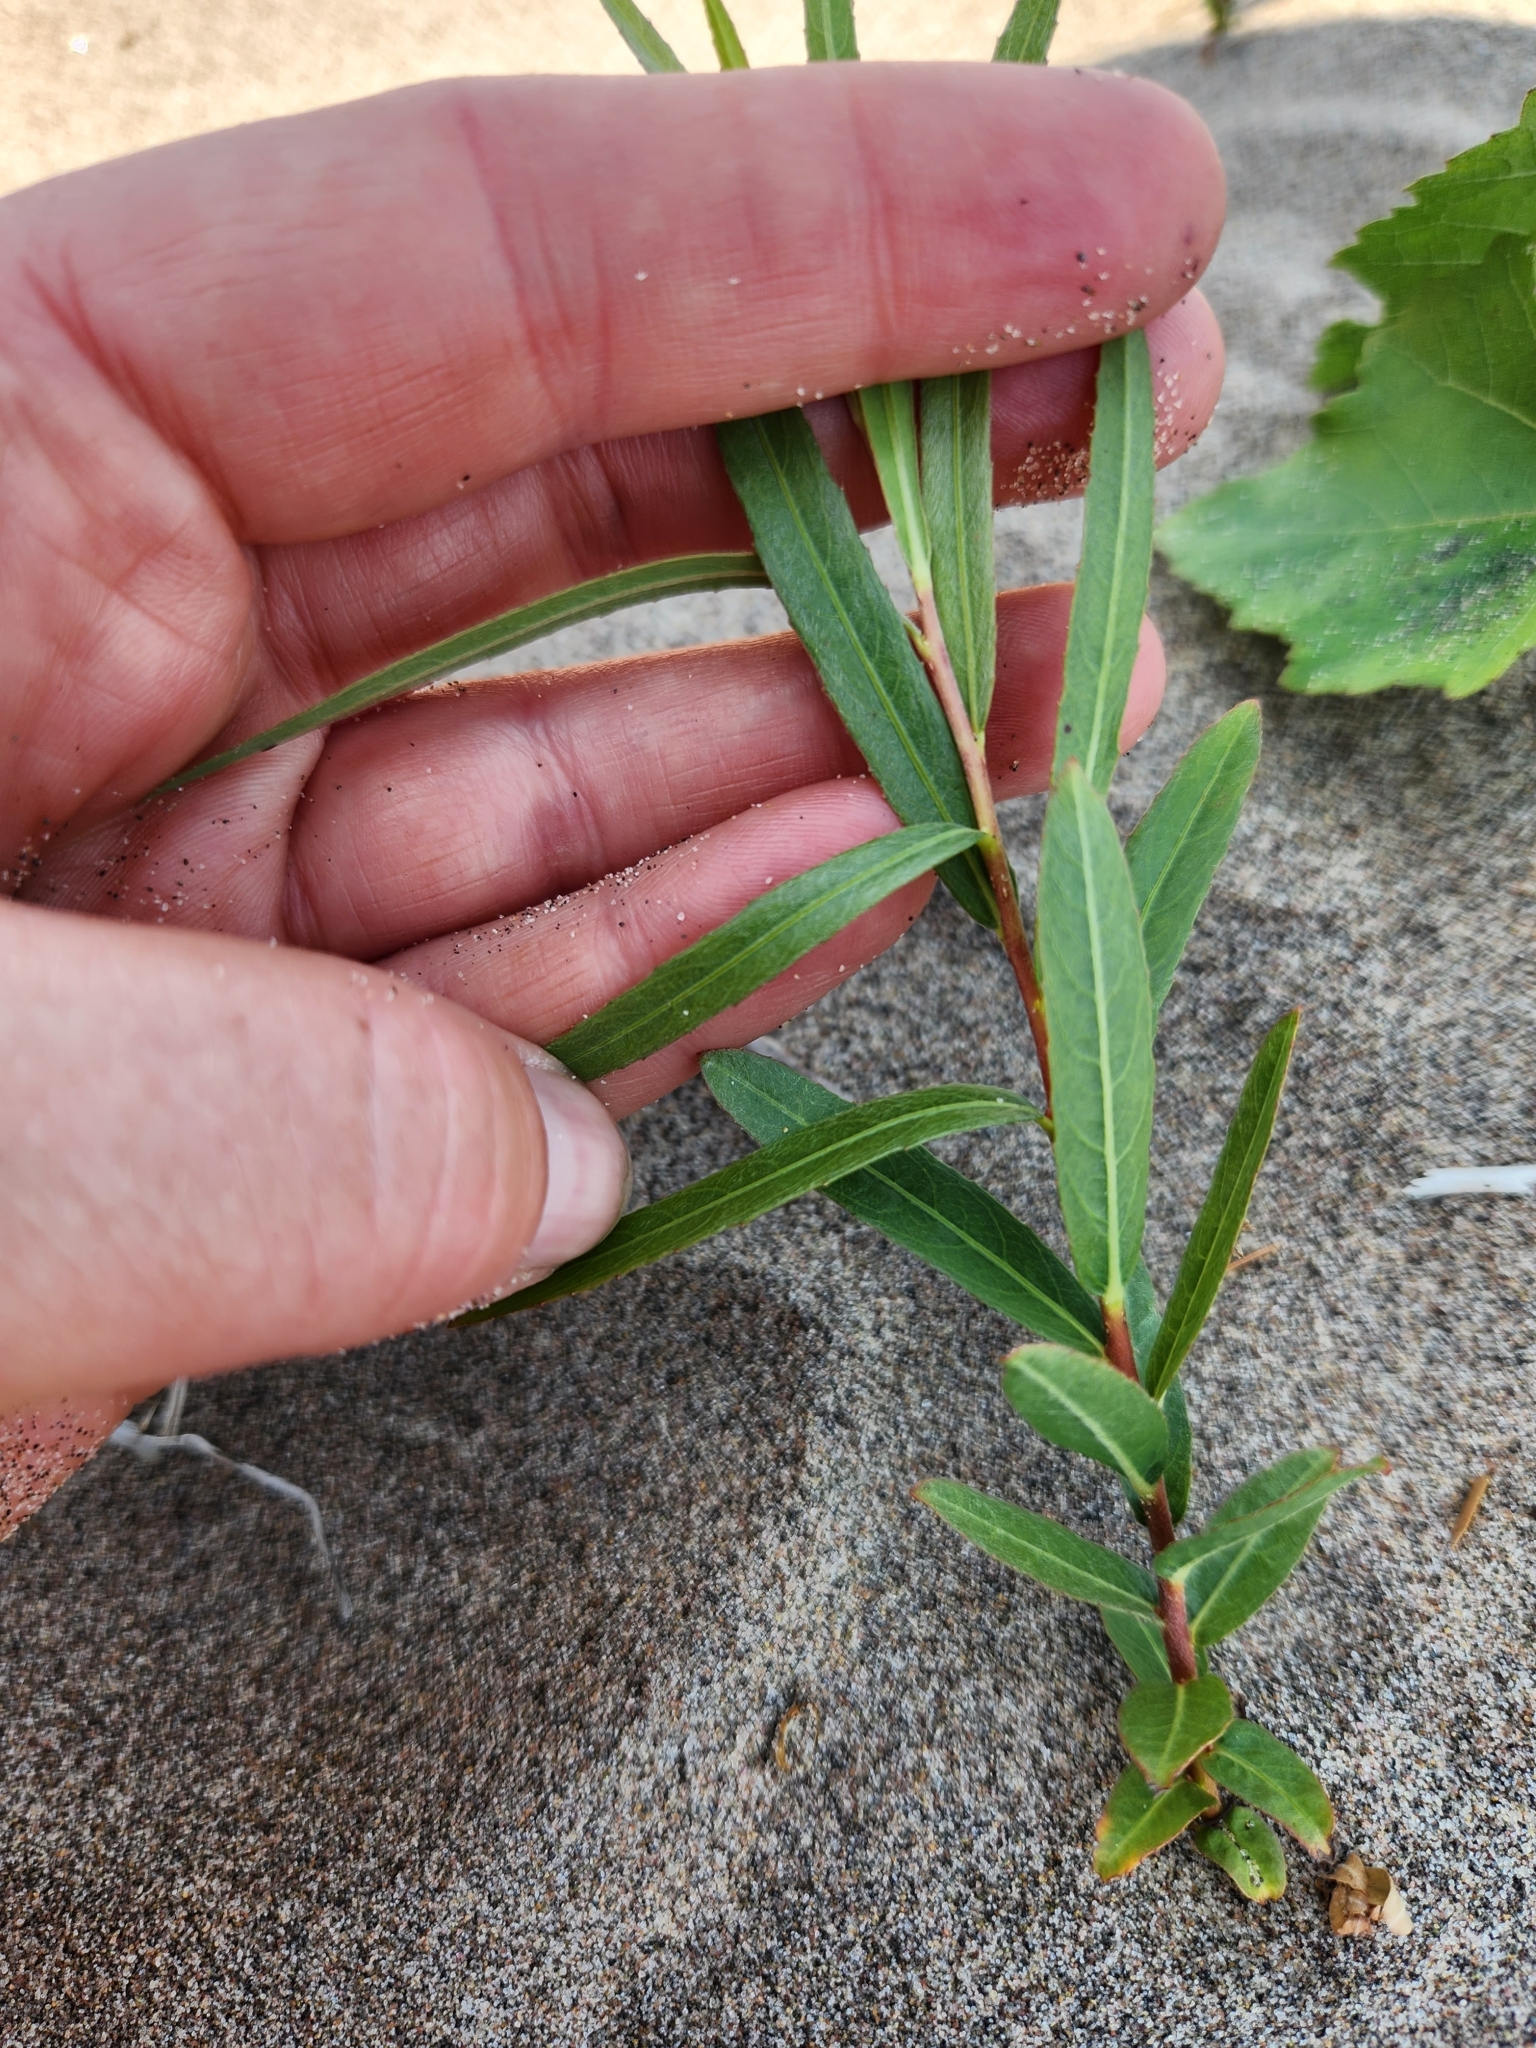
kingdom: Plantae
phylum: Tracheophyta
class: Magnoliopsida
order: Malpighiales
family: Salicaceae
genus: Salix
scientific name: Salix interior
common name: Sandbar willow
